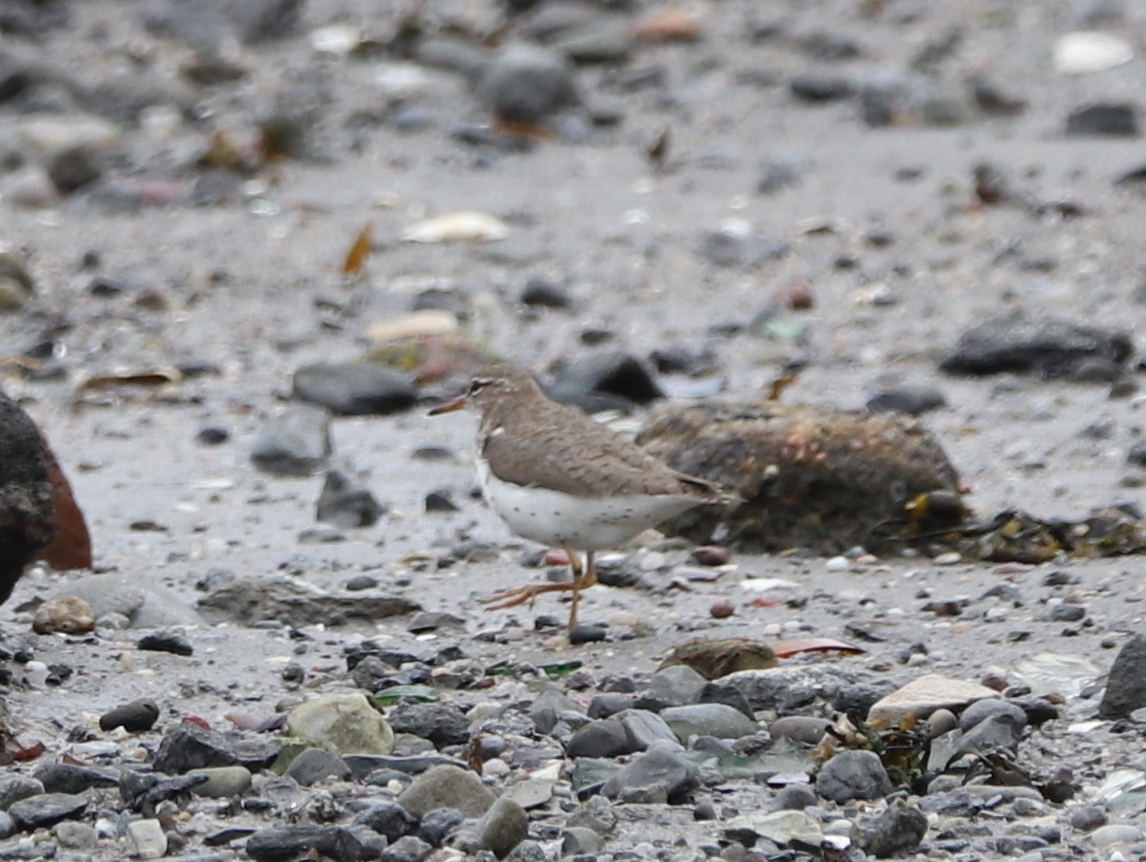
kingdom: Animalia
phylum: Chordata
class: Aves
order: Charadriiformes
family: Scolopacidae
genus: Actitis
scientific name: Actitis macularius
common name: Spotted sandpiper
